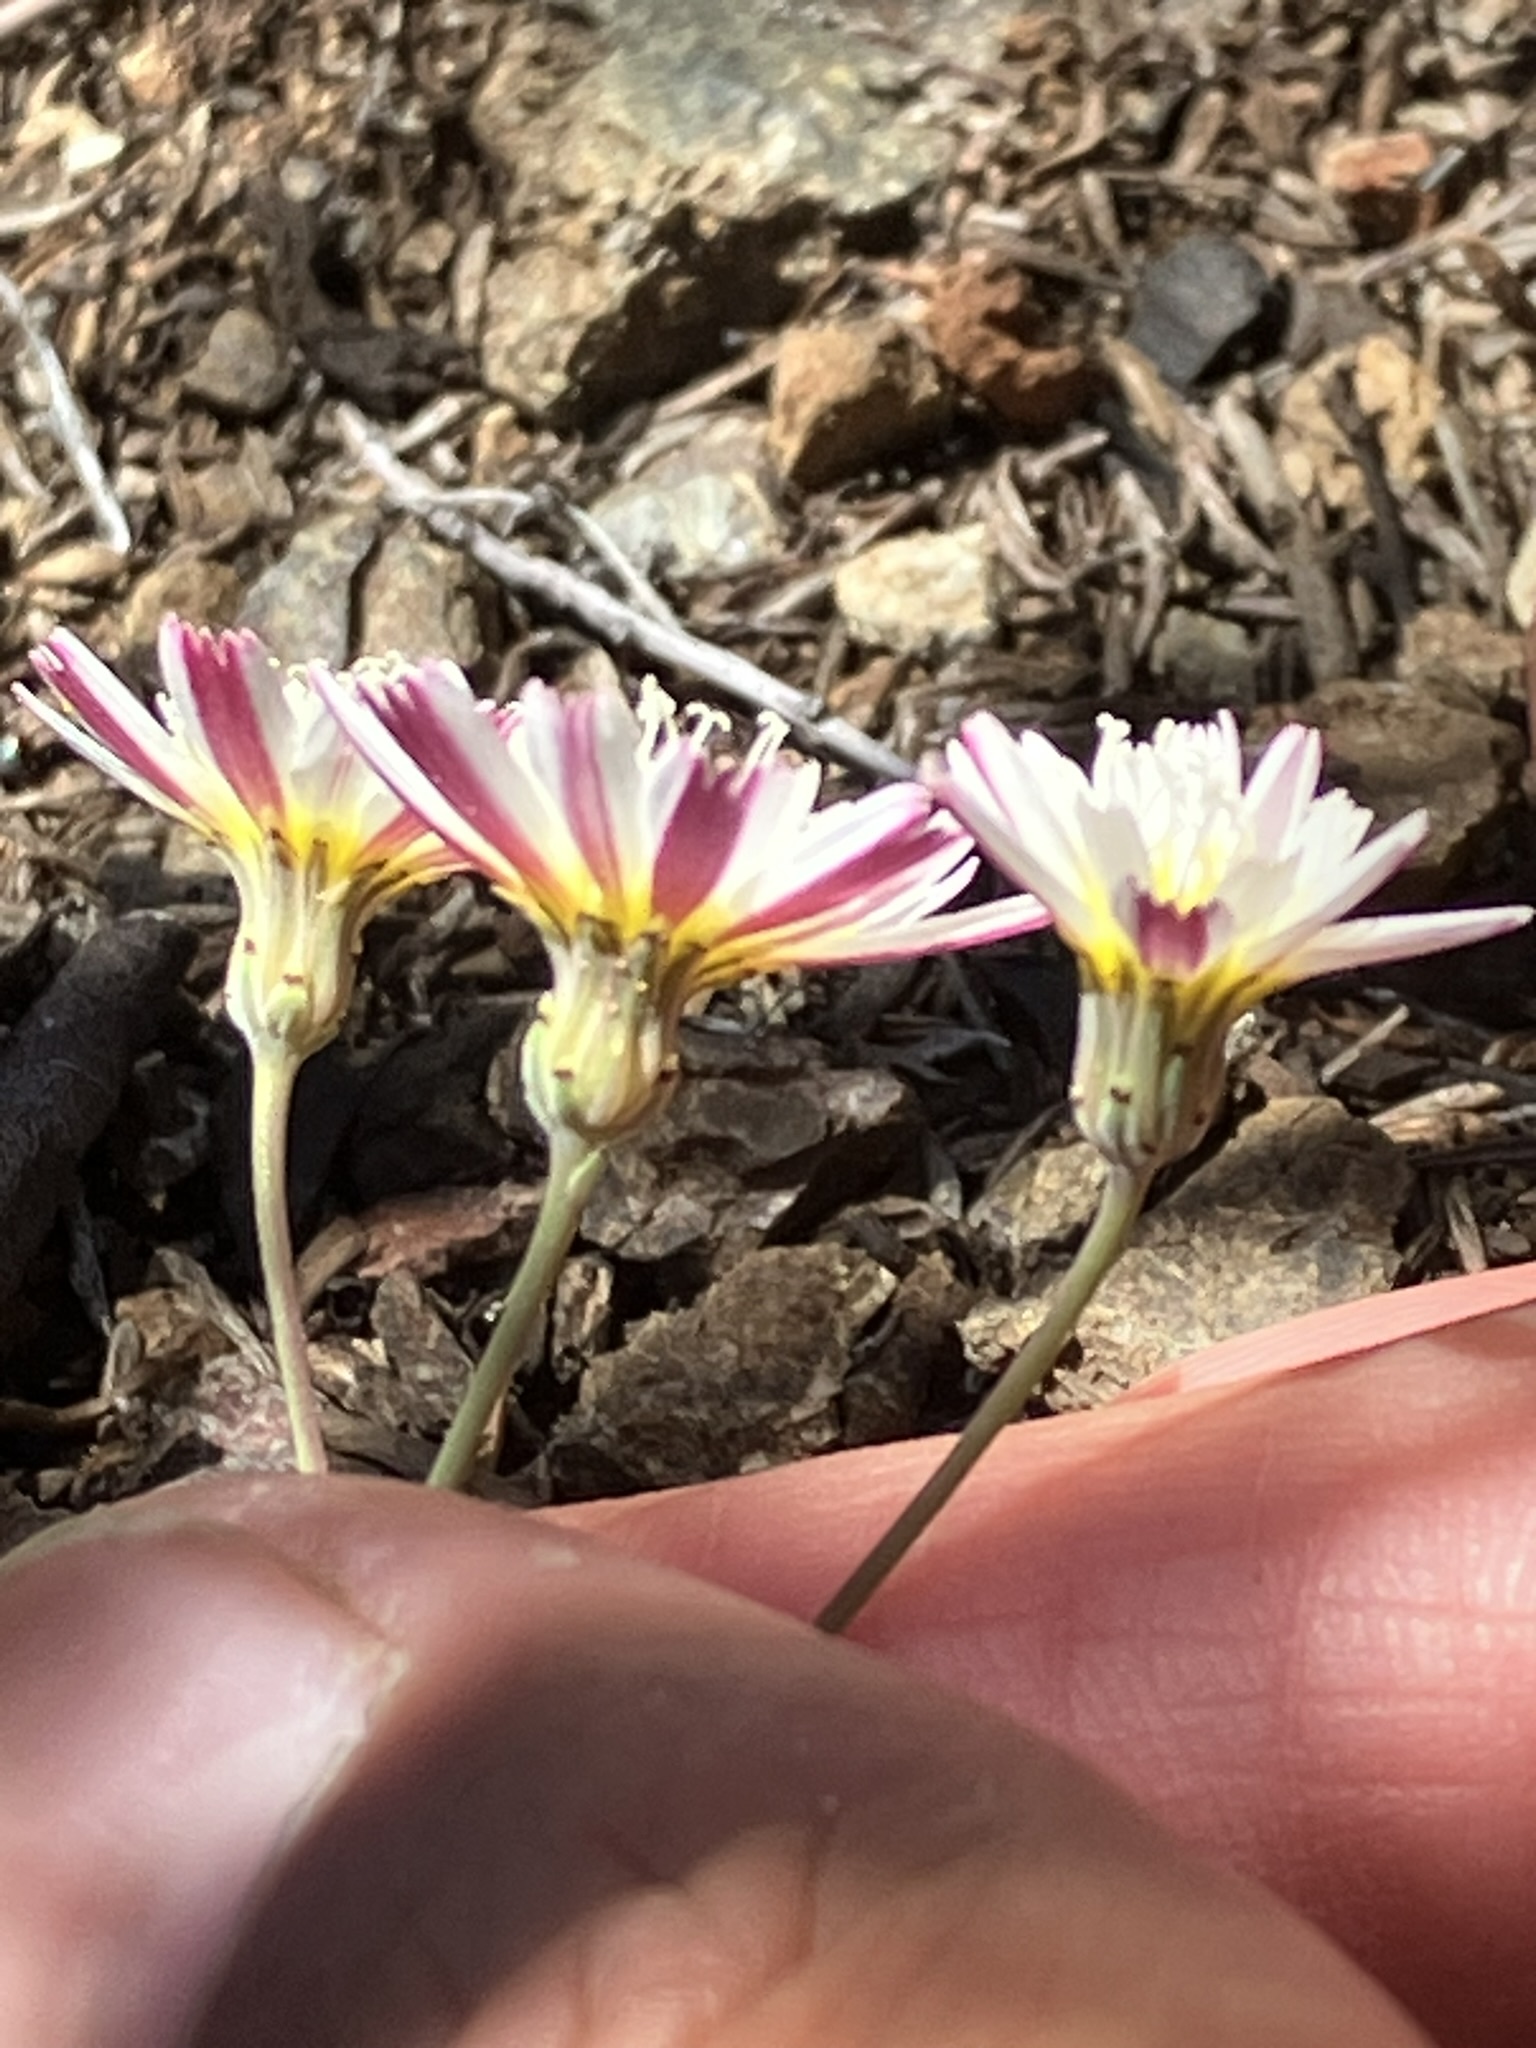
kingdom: Plantae
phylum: Tracheophyta
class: Magnoliopsida
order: Asterales
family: Asteraceae
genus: Malacothrix
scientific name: Malacothrix floccifera
